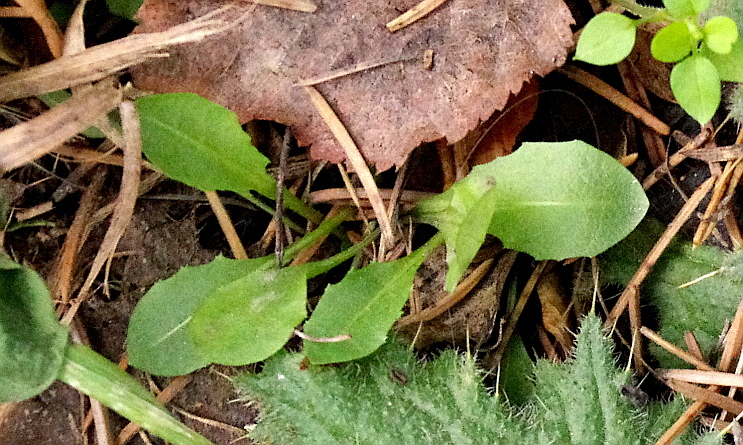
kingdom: Plantae
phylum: Tracheophyta
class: Magnoliopsida
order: Asterales
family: Asteraceae
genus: Taraxacum
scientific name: Taraxacum officinale
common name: Common dandelion
